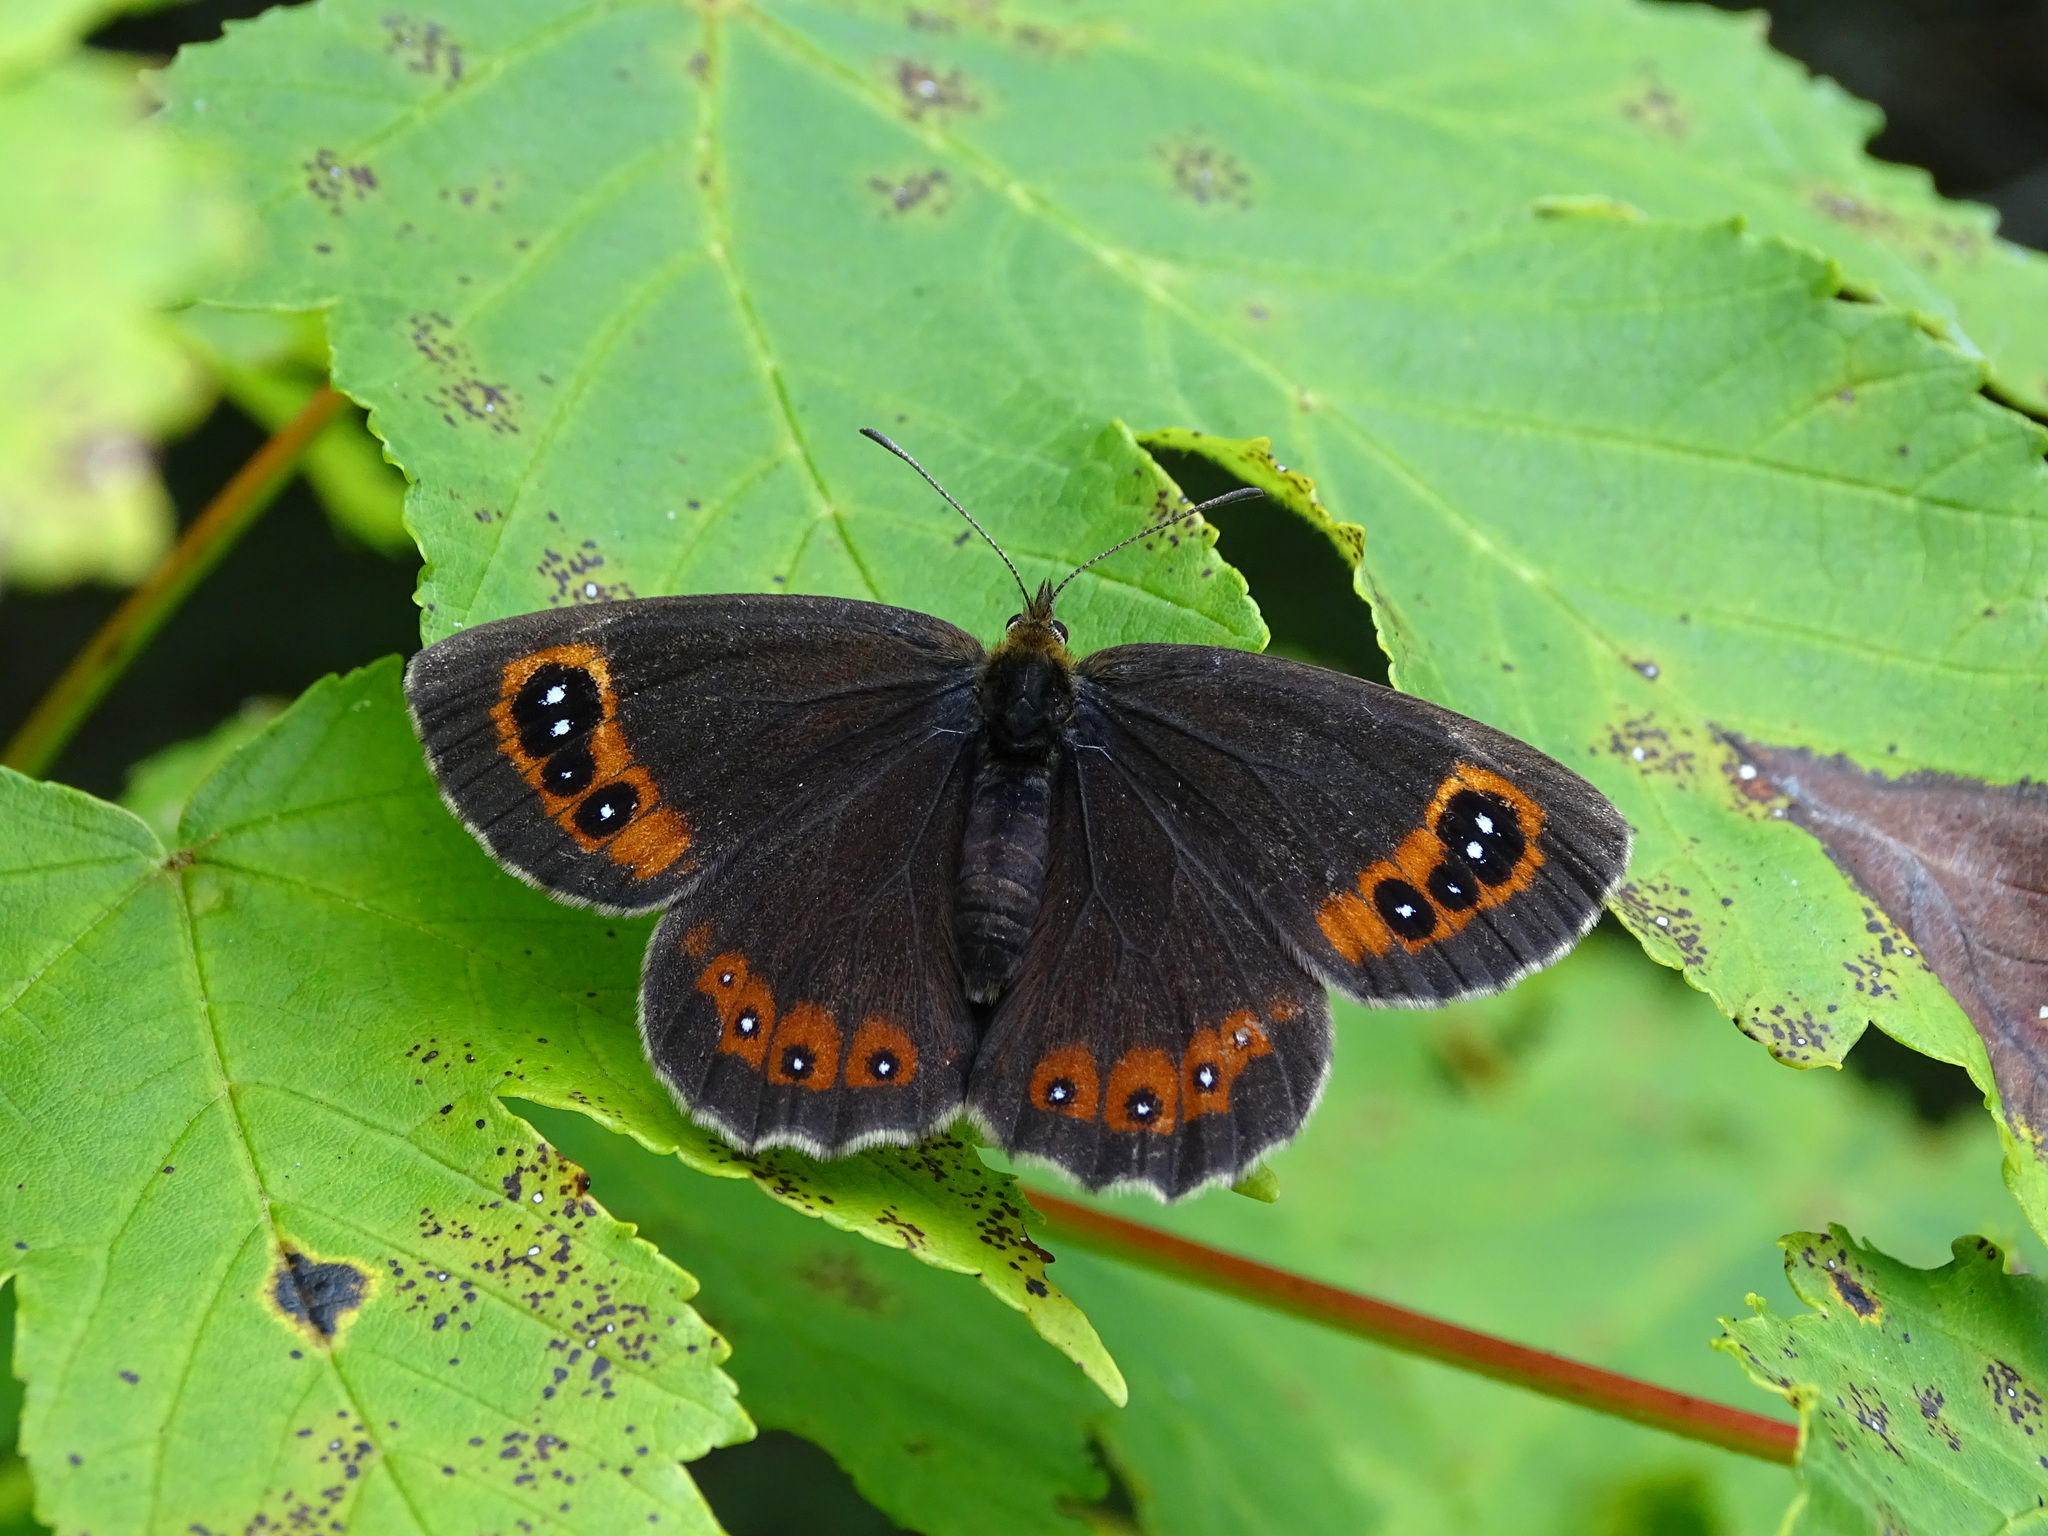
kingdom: Animalia
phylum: Arthropoda
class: Insecta
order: Lepidoptera
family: Nymphalidae
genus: Erebia
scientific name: Erebia aethiops
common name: Scotch argus
